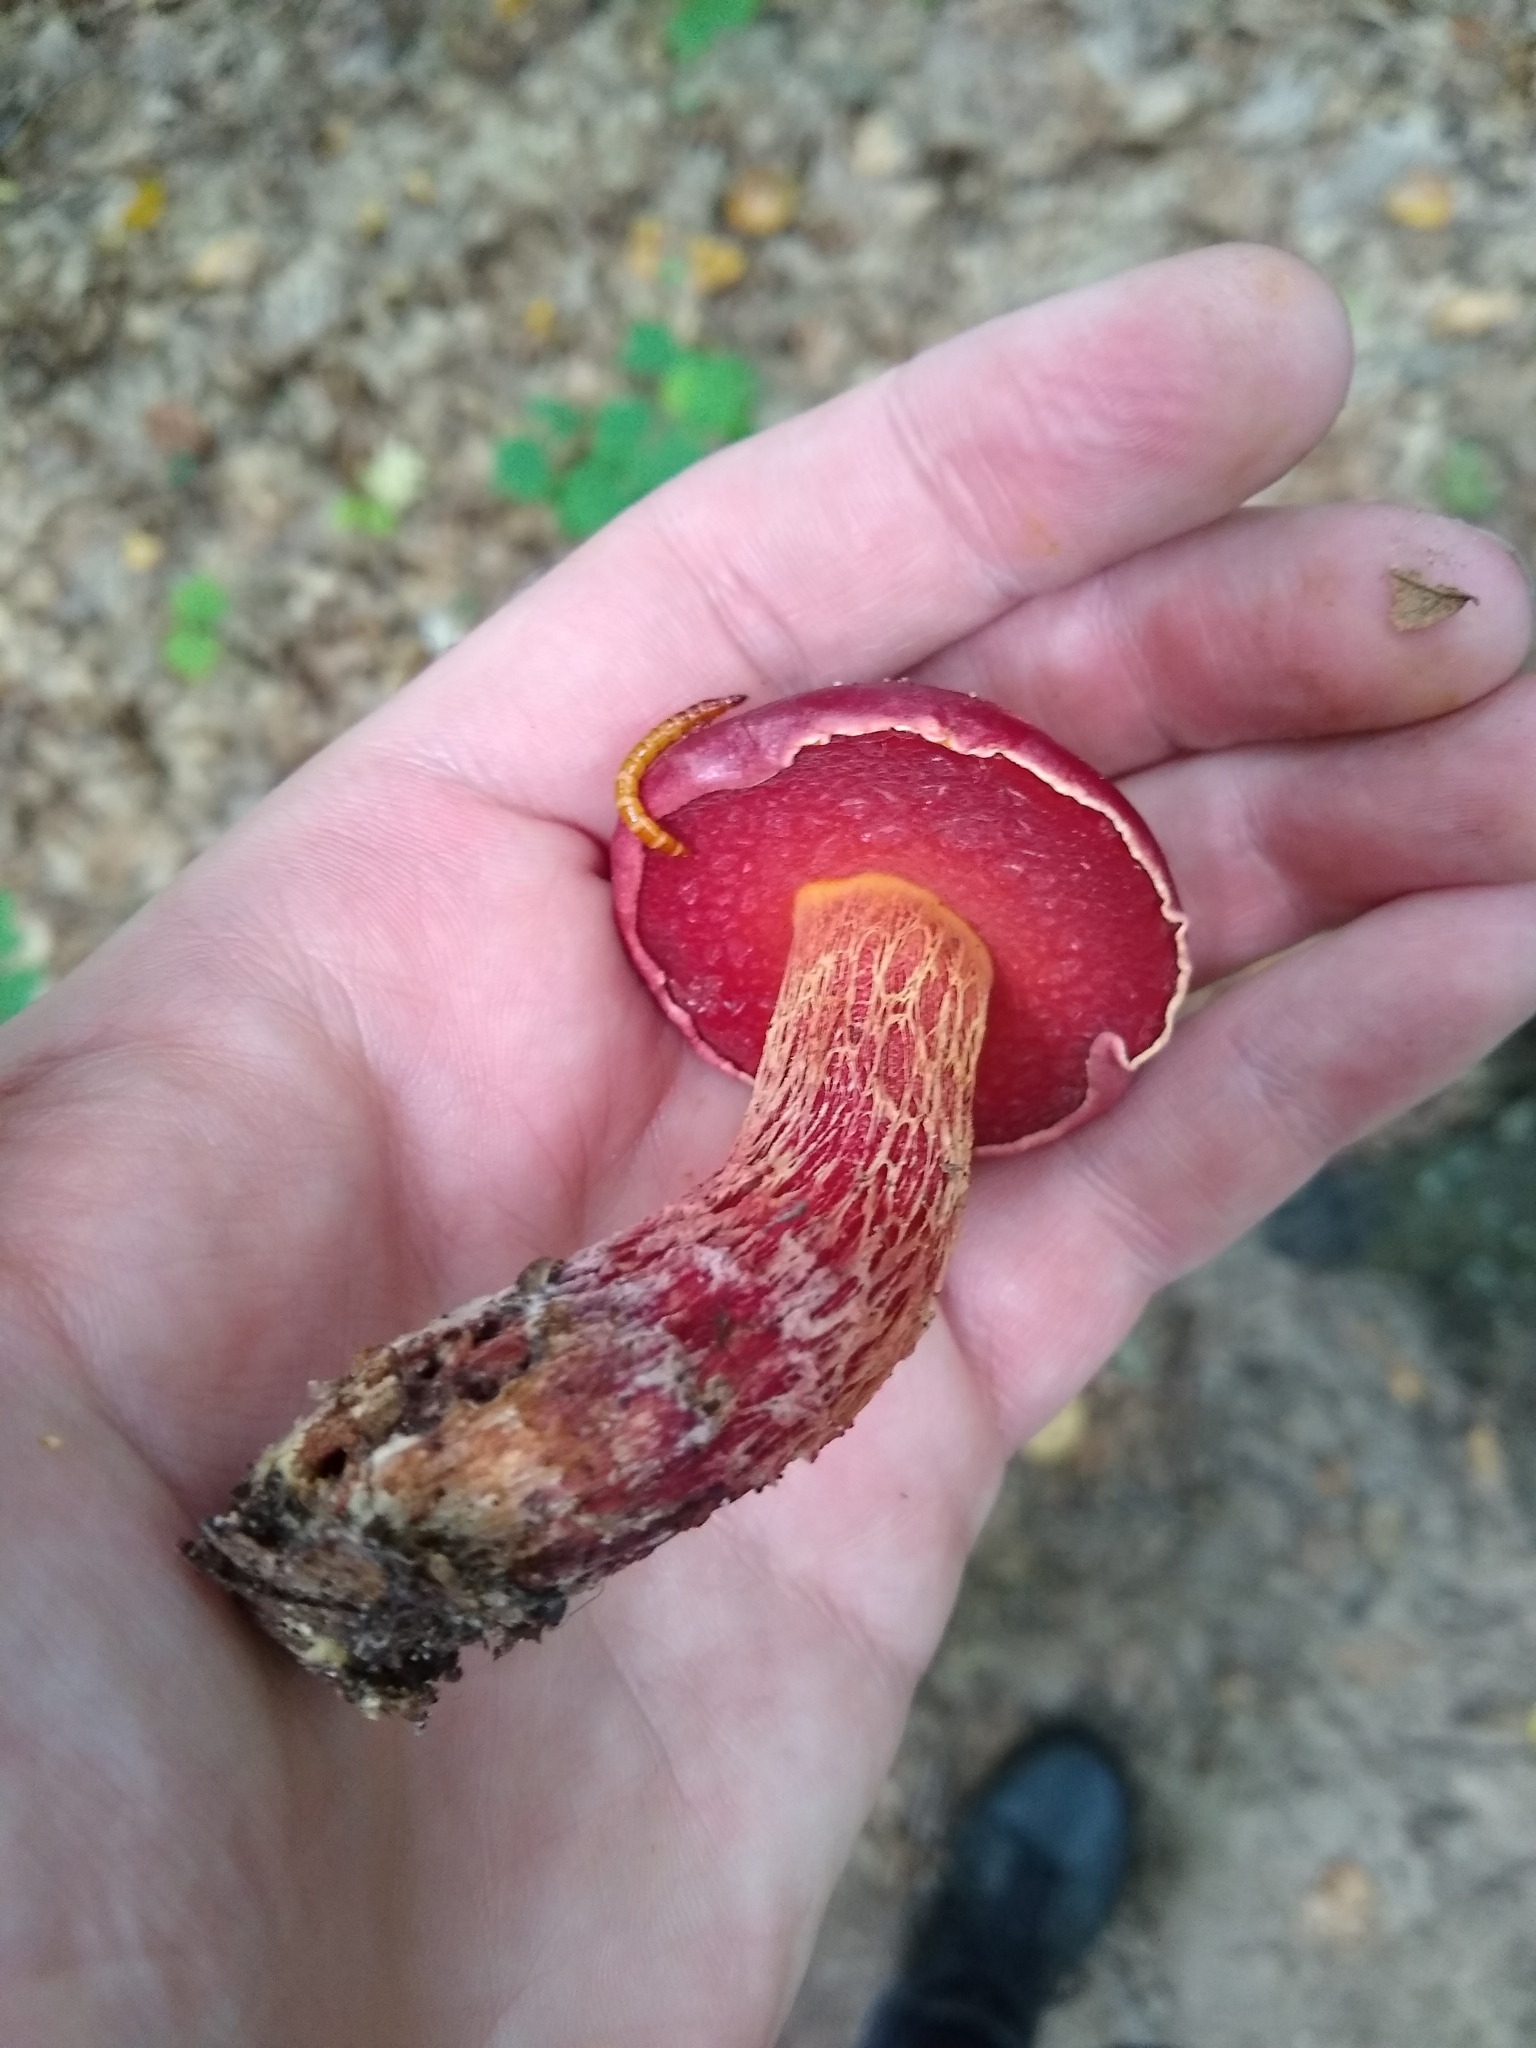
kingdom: Fungi
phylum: Basidiomycota
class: Agaricomycetes
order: Boletales
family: Boletaceae
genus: Butyriboletus
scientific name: Butyriboletus frostii
